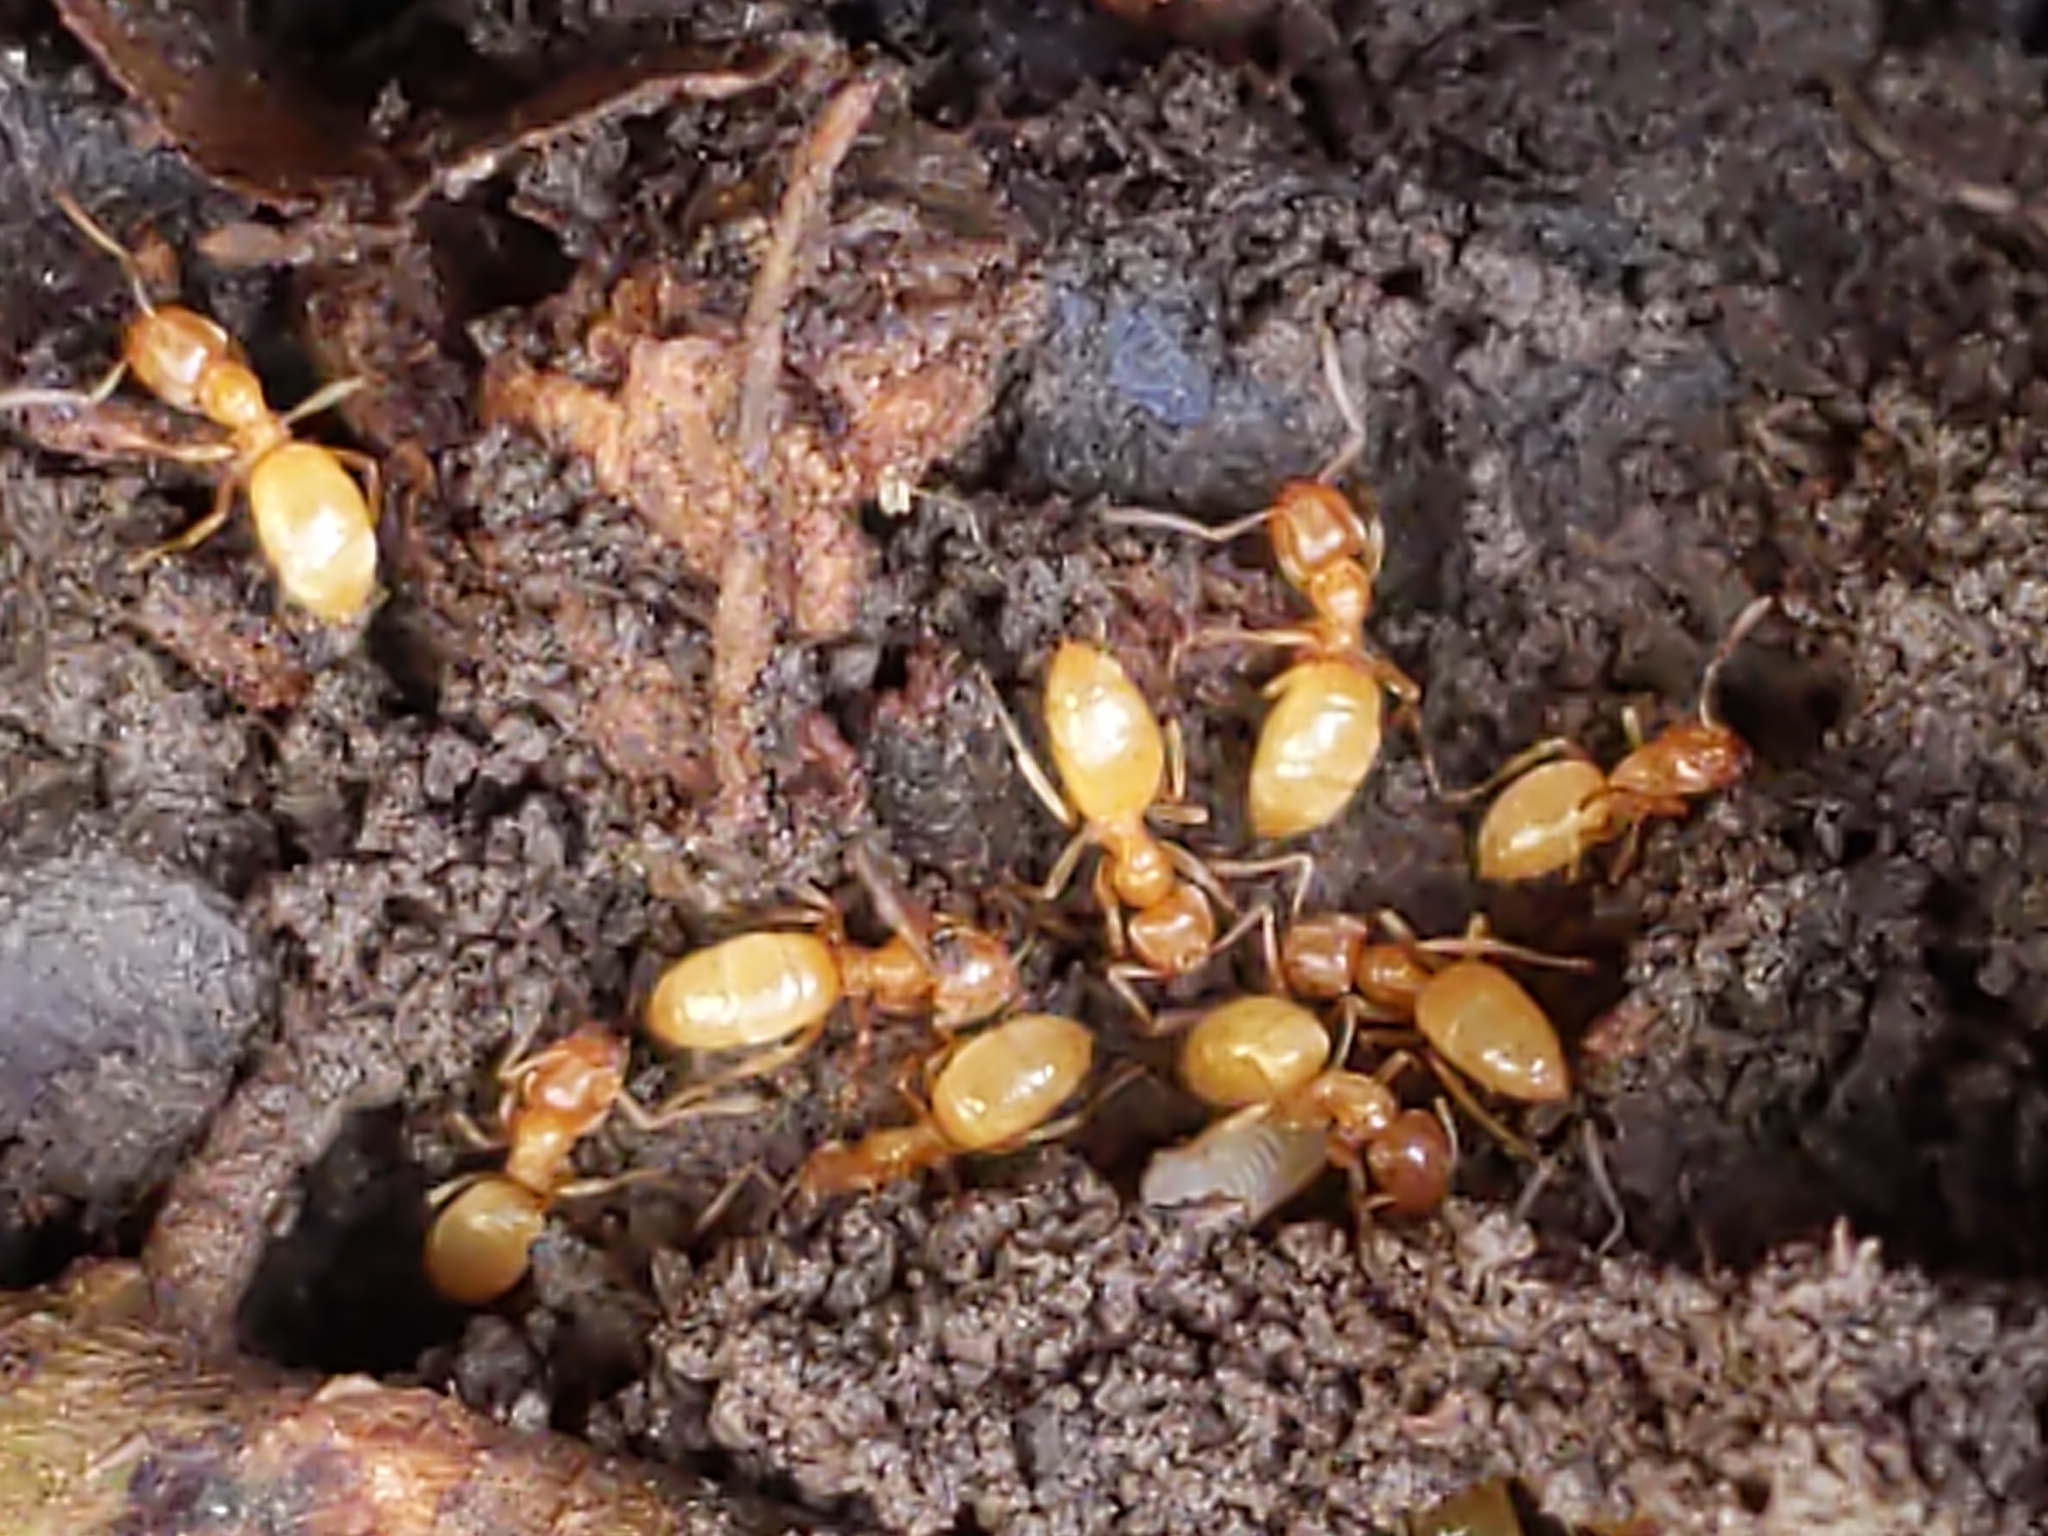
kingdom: Animalia
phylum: Arthropoda
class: Insecta
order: Hymenoptera
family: Formicidae
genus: Lasius
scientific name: Lasius
